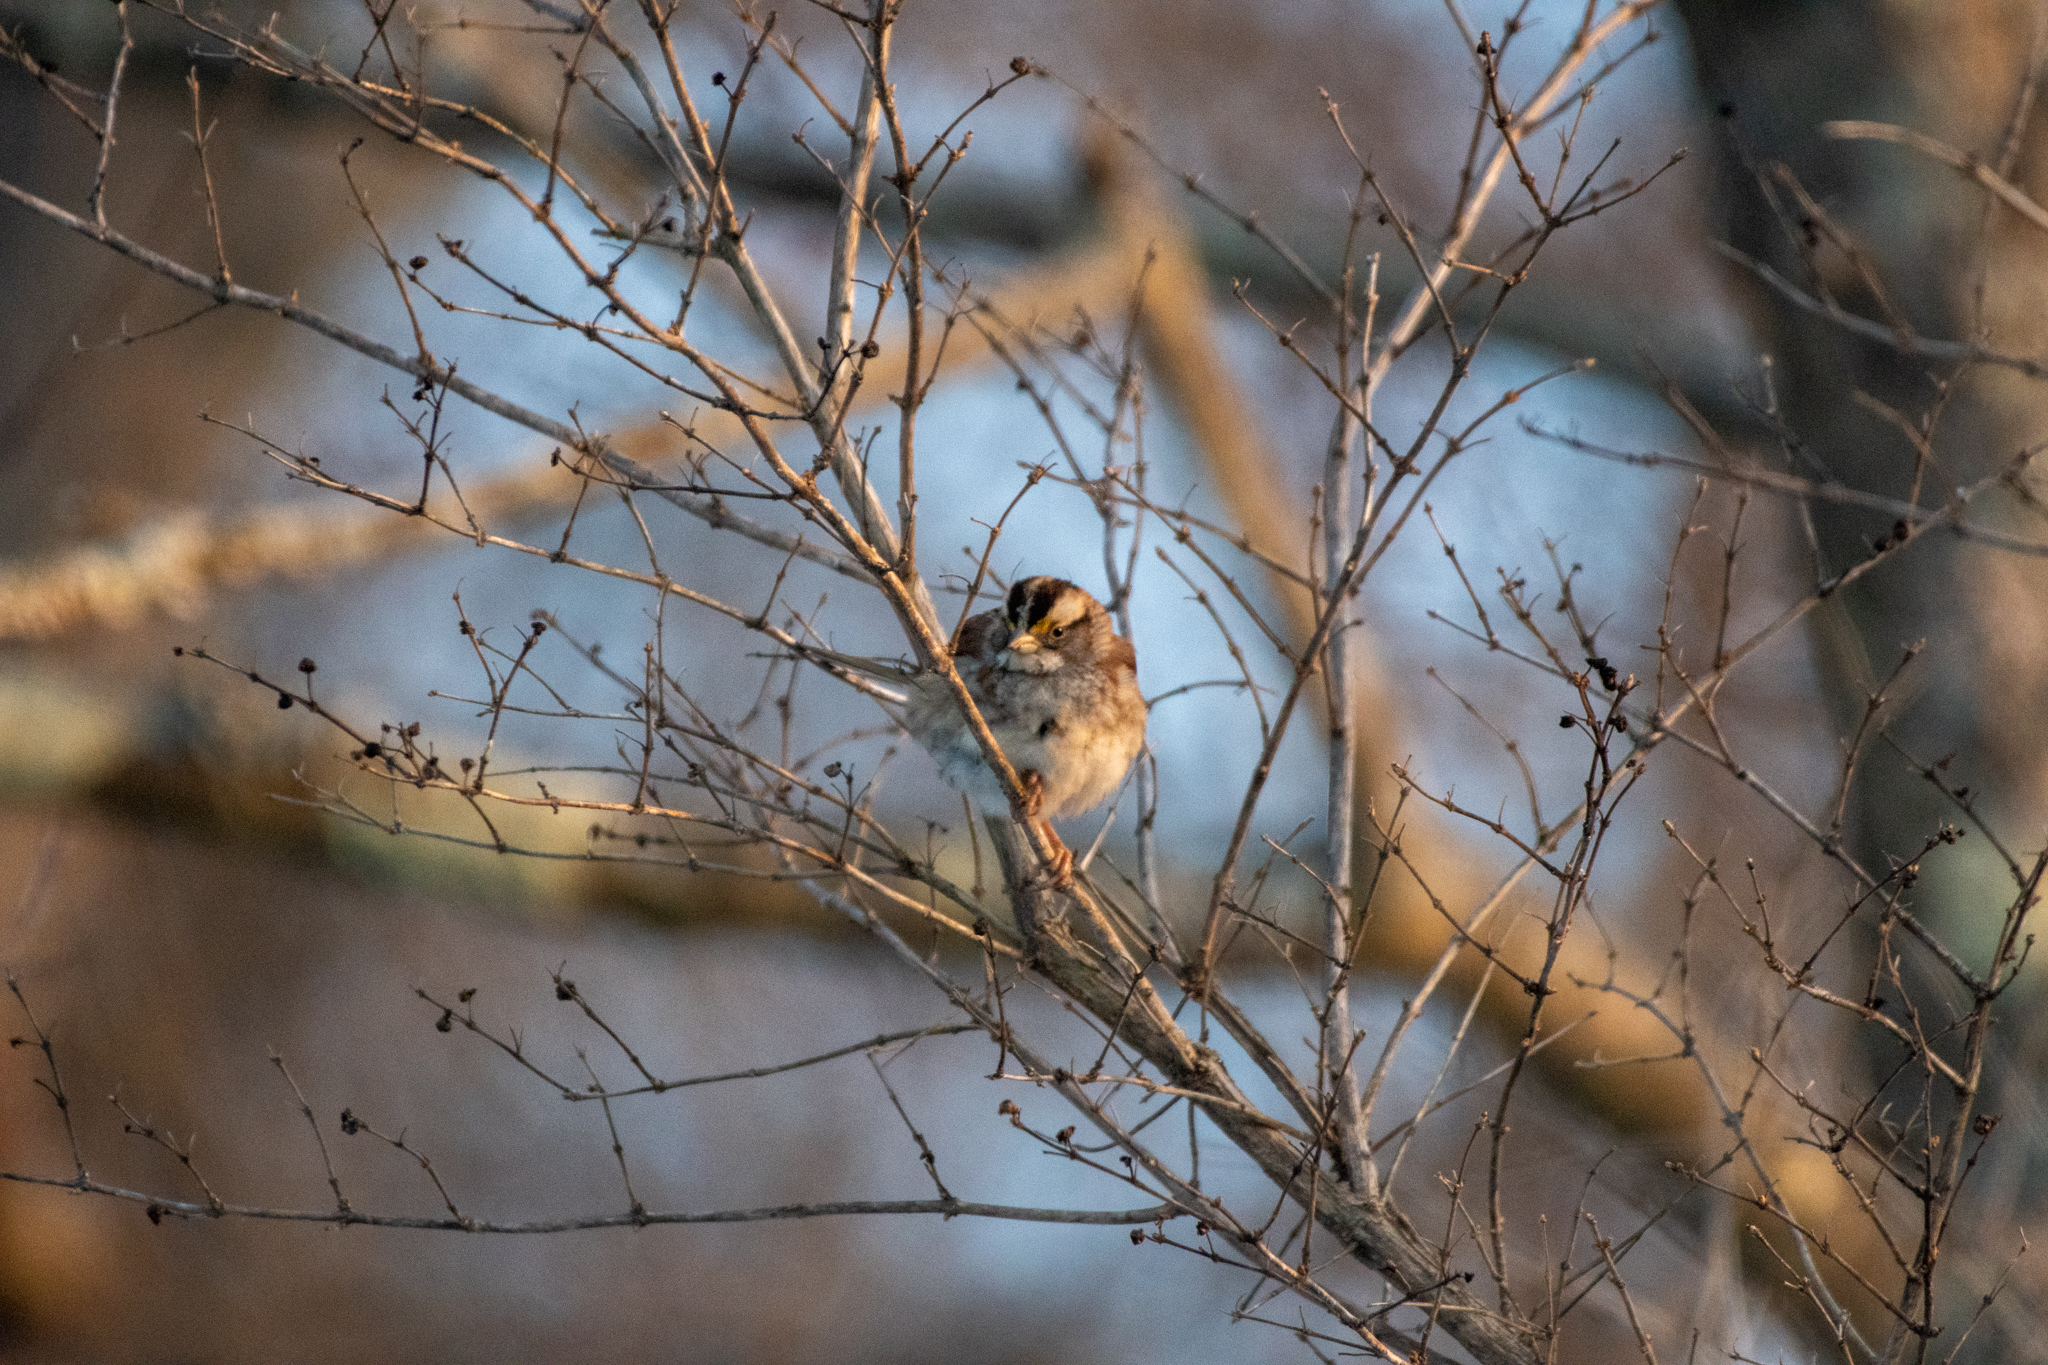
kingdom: Animalia
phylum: Chordata
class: Aves
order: Passeriformes
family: Passerellidae
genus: Zonotrichia
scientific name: Zonotrichia albicollis
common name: White-throated sparrow
